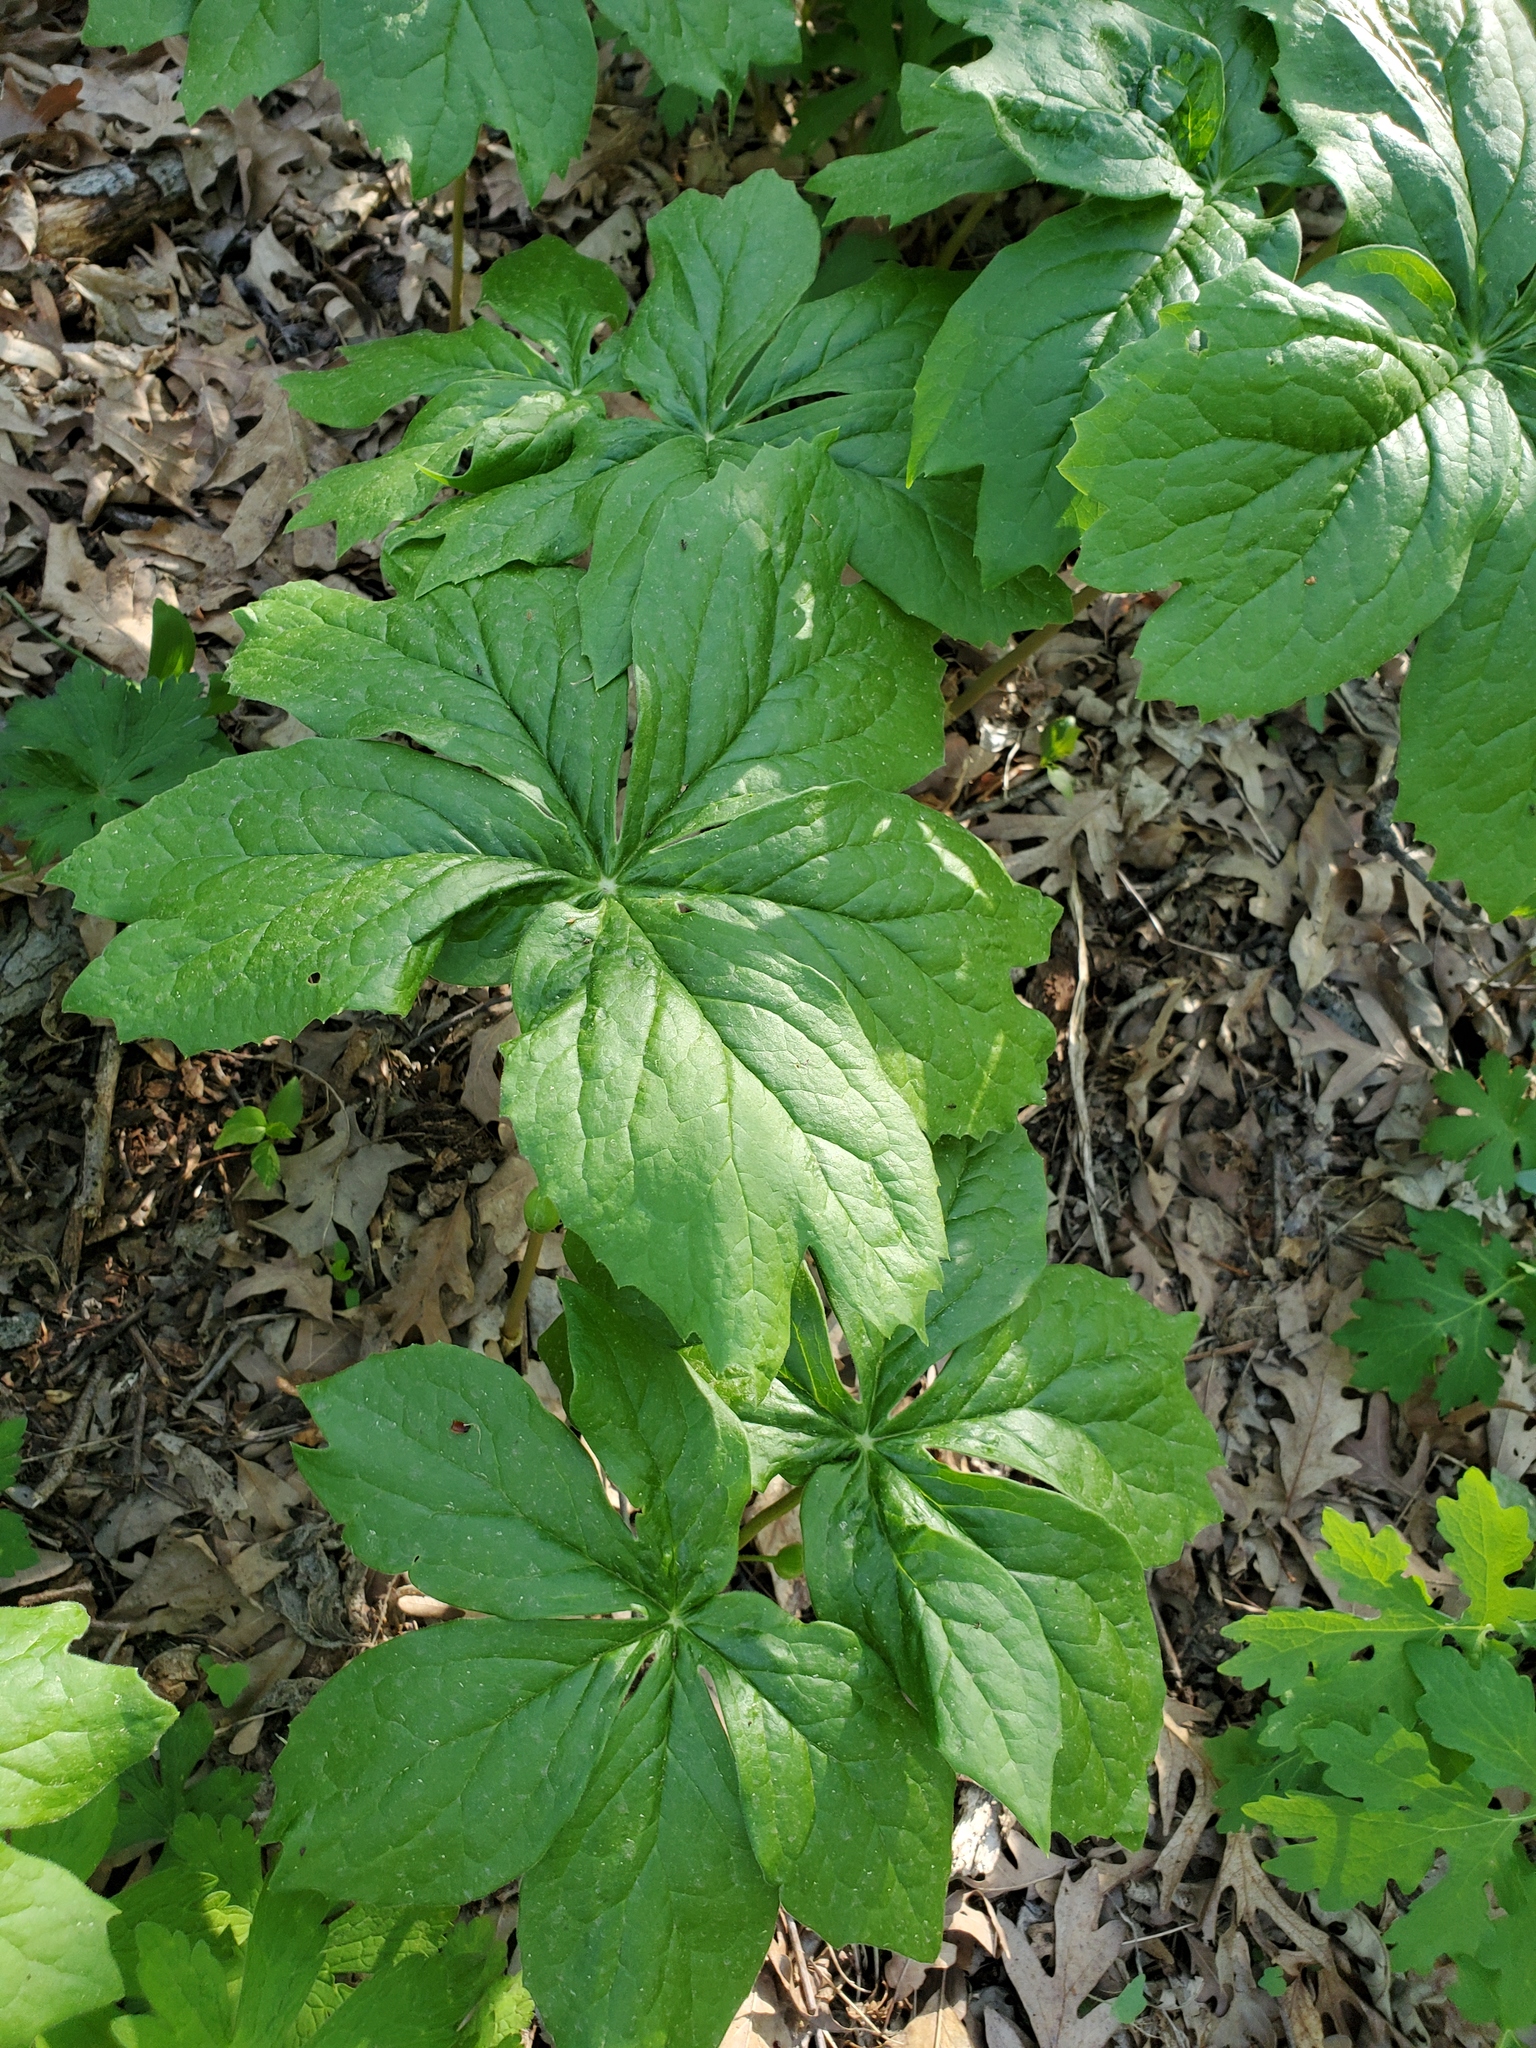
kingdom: Plantae
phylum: Tracheophyta
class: Magnoliopsida
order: Ranunculales
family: Berberidaceae
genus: Podophyllum
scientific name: Podophyllum peltatum
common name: Wild mandrake
